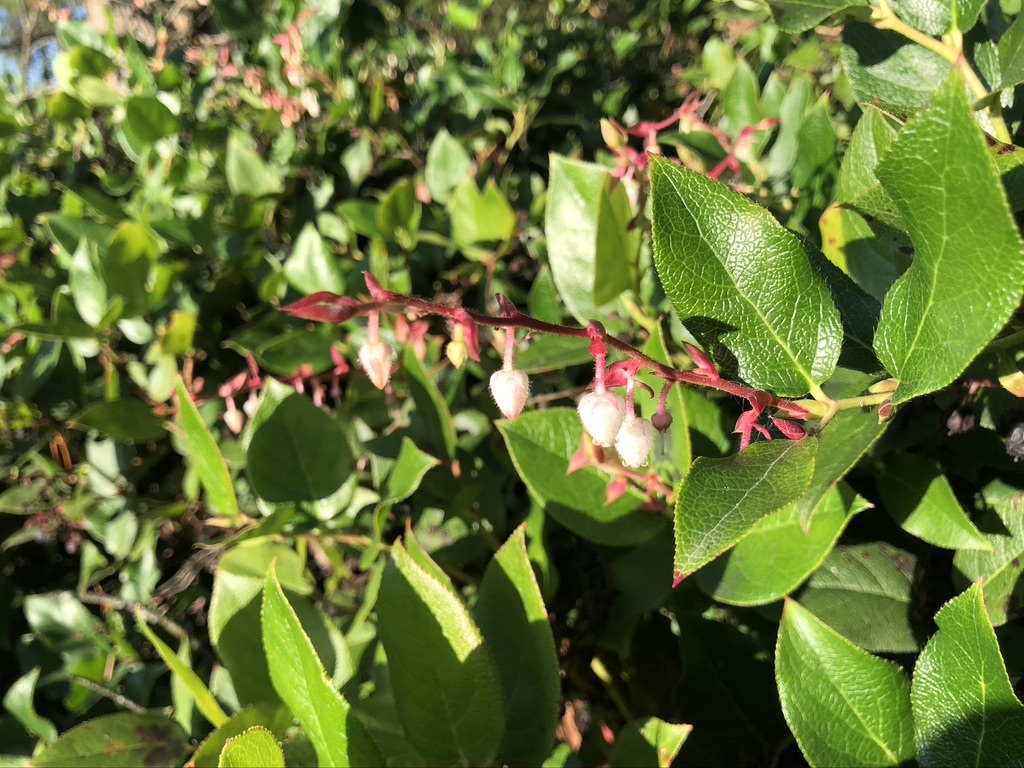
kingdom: Plantae
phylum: Tracheophyta
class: Magnoliopsida
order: Ericales
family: Ericaceae
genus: Gaultheria
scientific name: Gaultheria shallon
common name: Shallon
